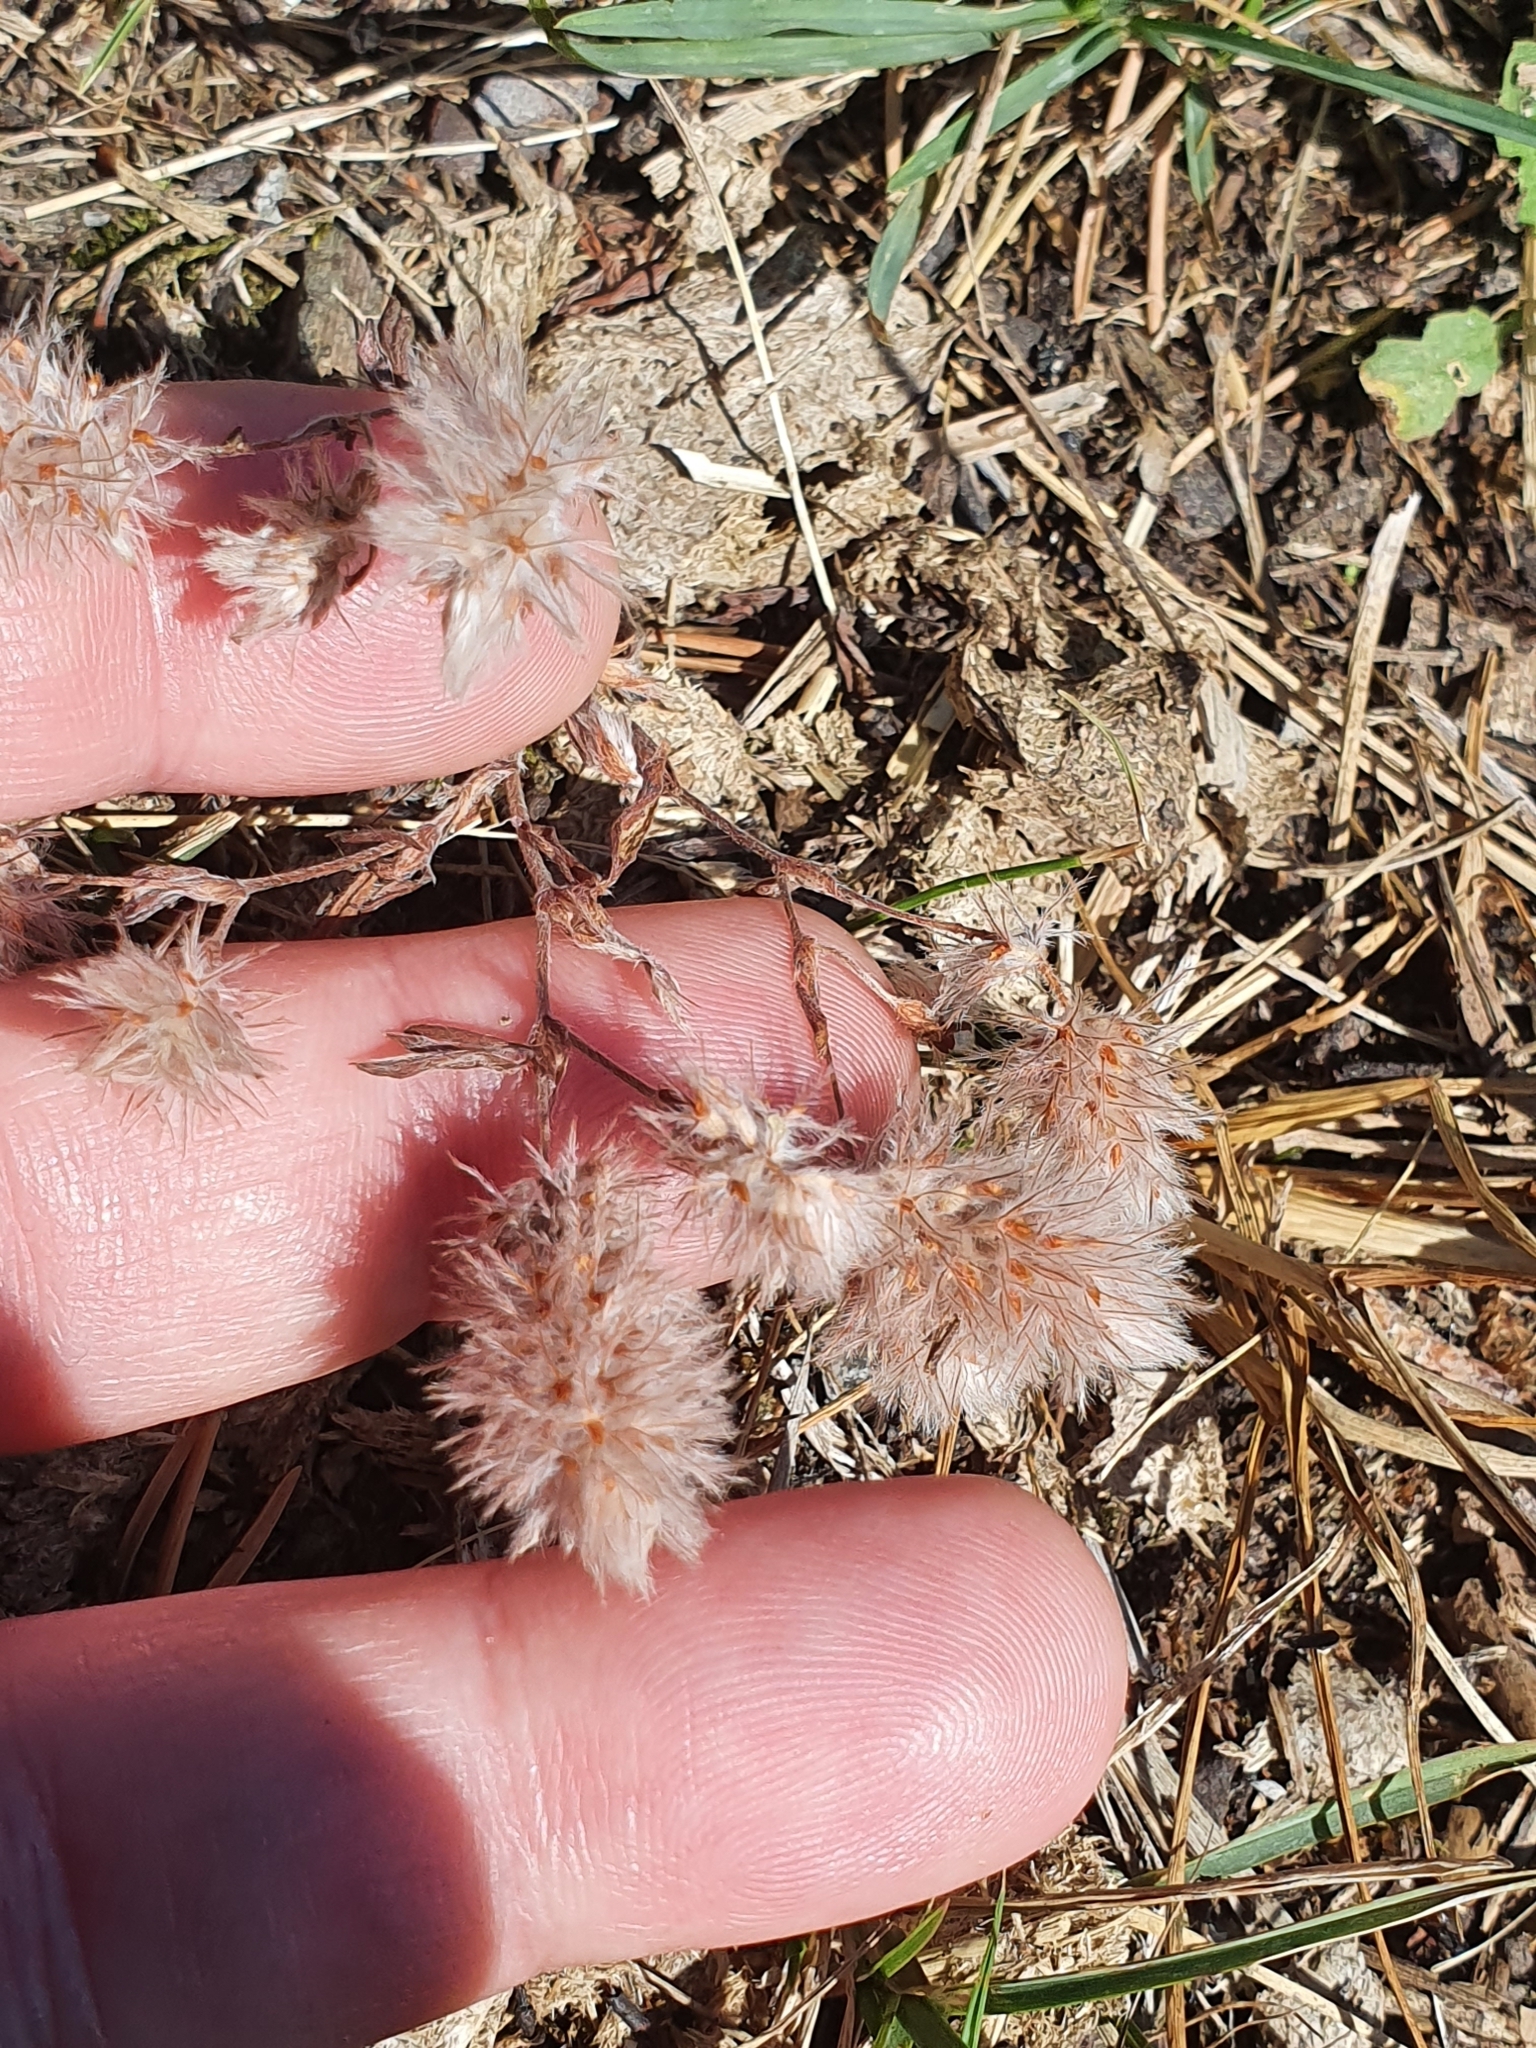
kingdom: Plantae
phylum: Tracheophyta
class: Magnoliopsida
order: Fabales
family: Fabaceae
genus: Trifolium
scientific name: Trifolium arvense
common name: Hare's-foot clover
